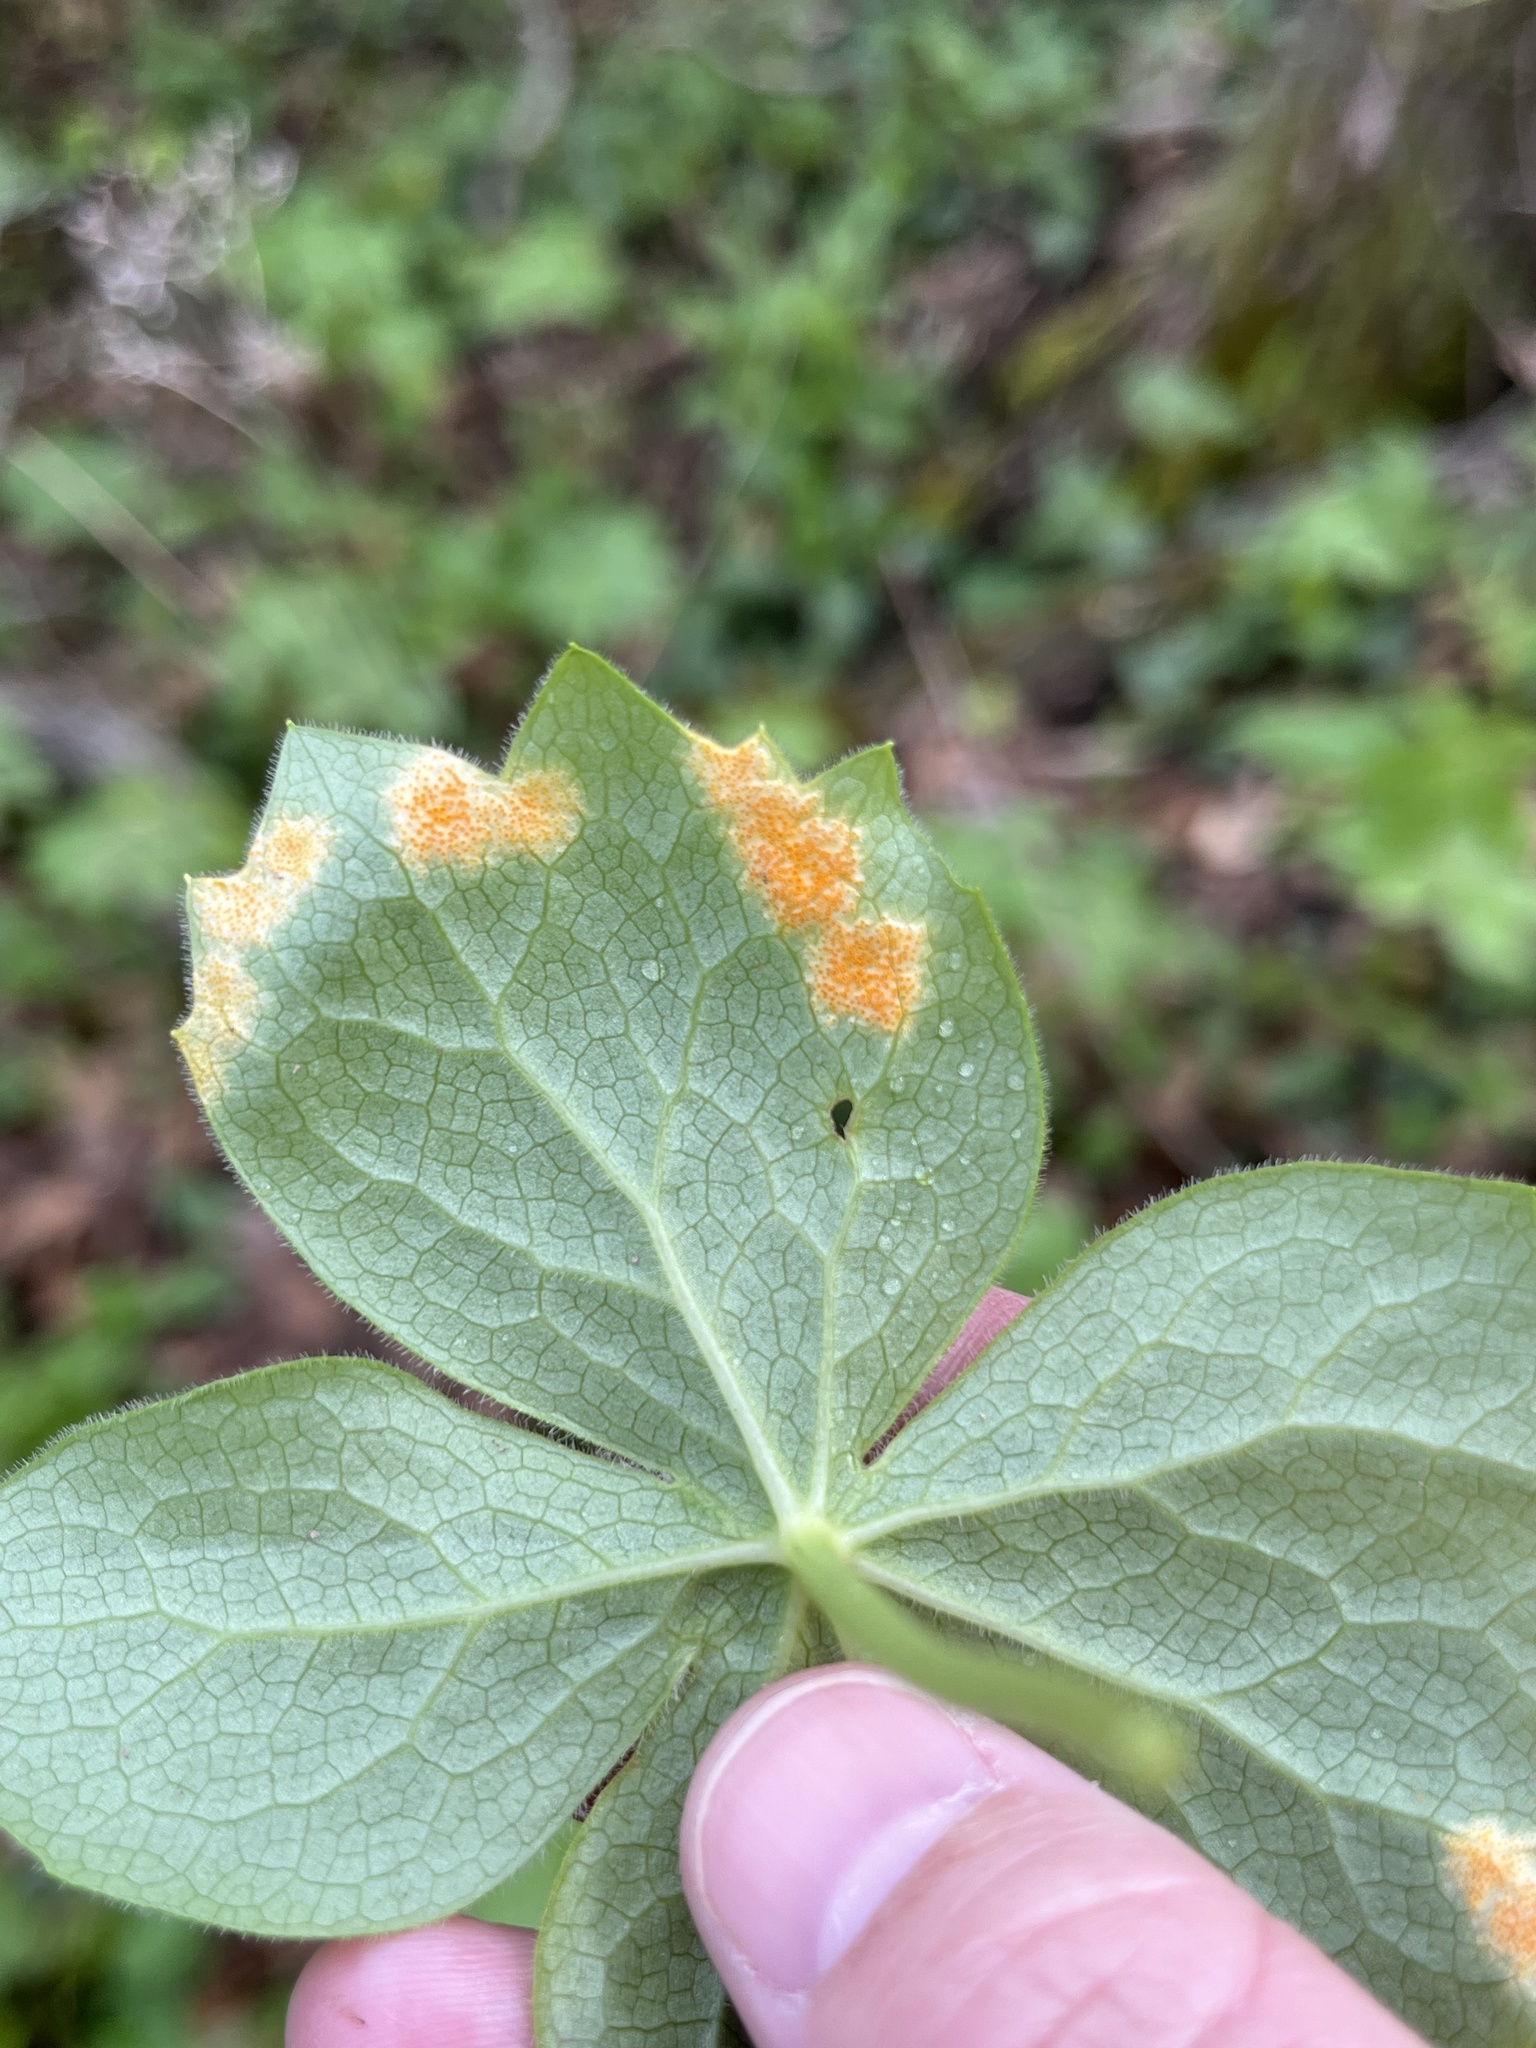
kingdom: Fungi
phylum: Basidiomycota
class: Pucciniomycetes
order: Pucciniales
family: Pucciniaceae
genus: Puccinia
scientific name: Puccinia podophylli
